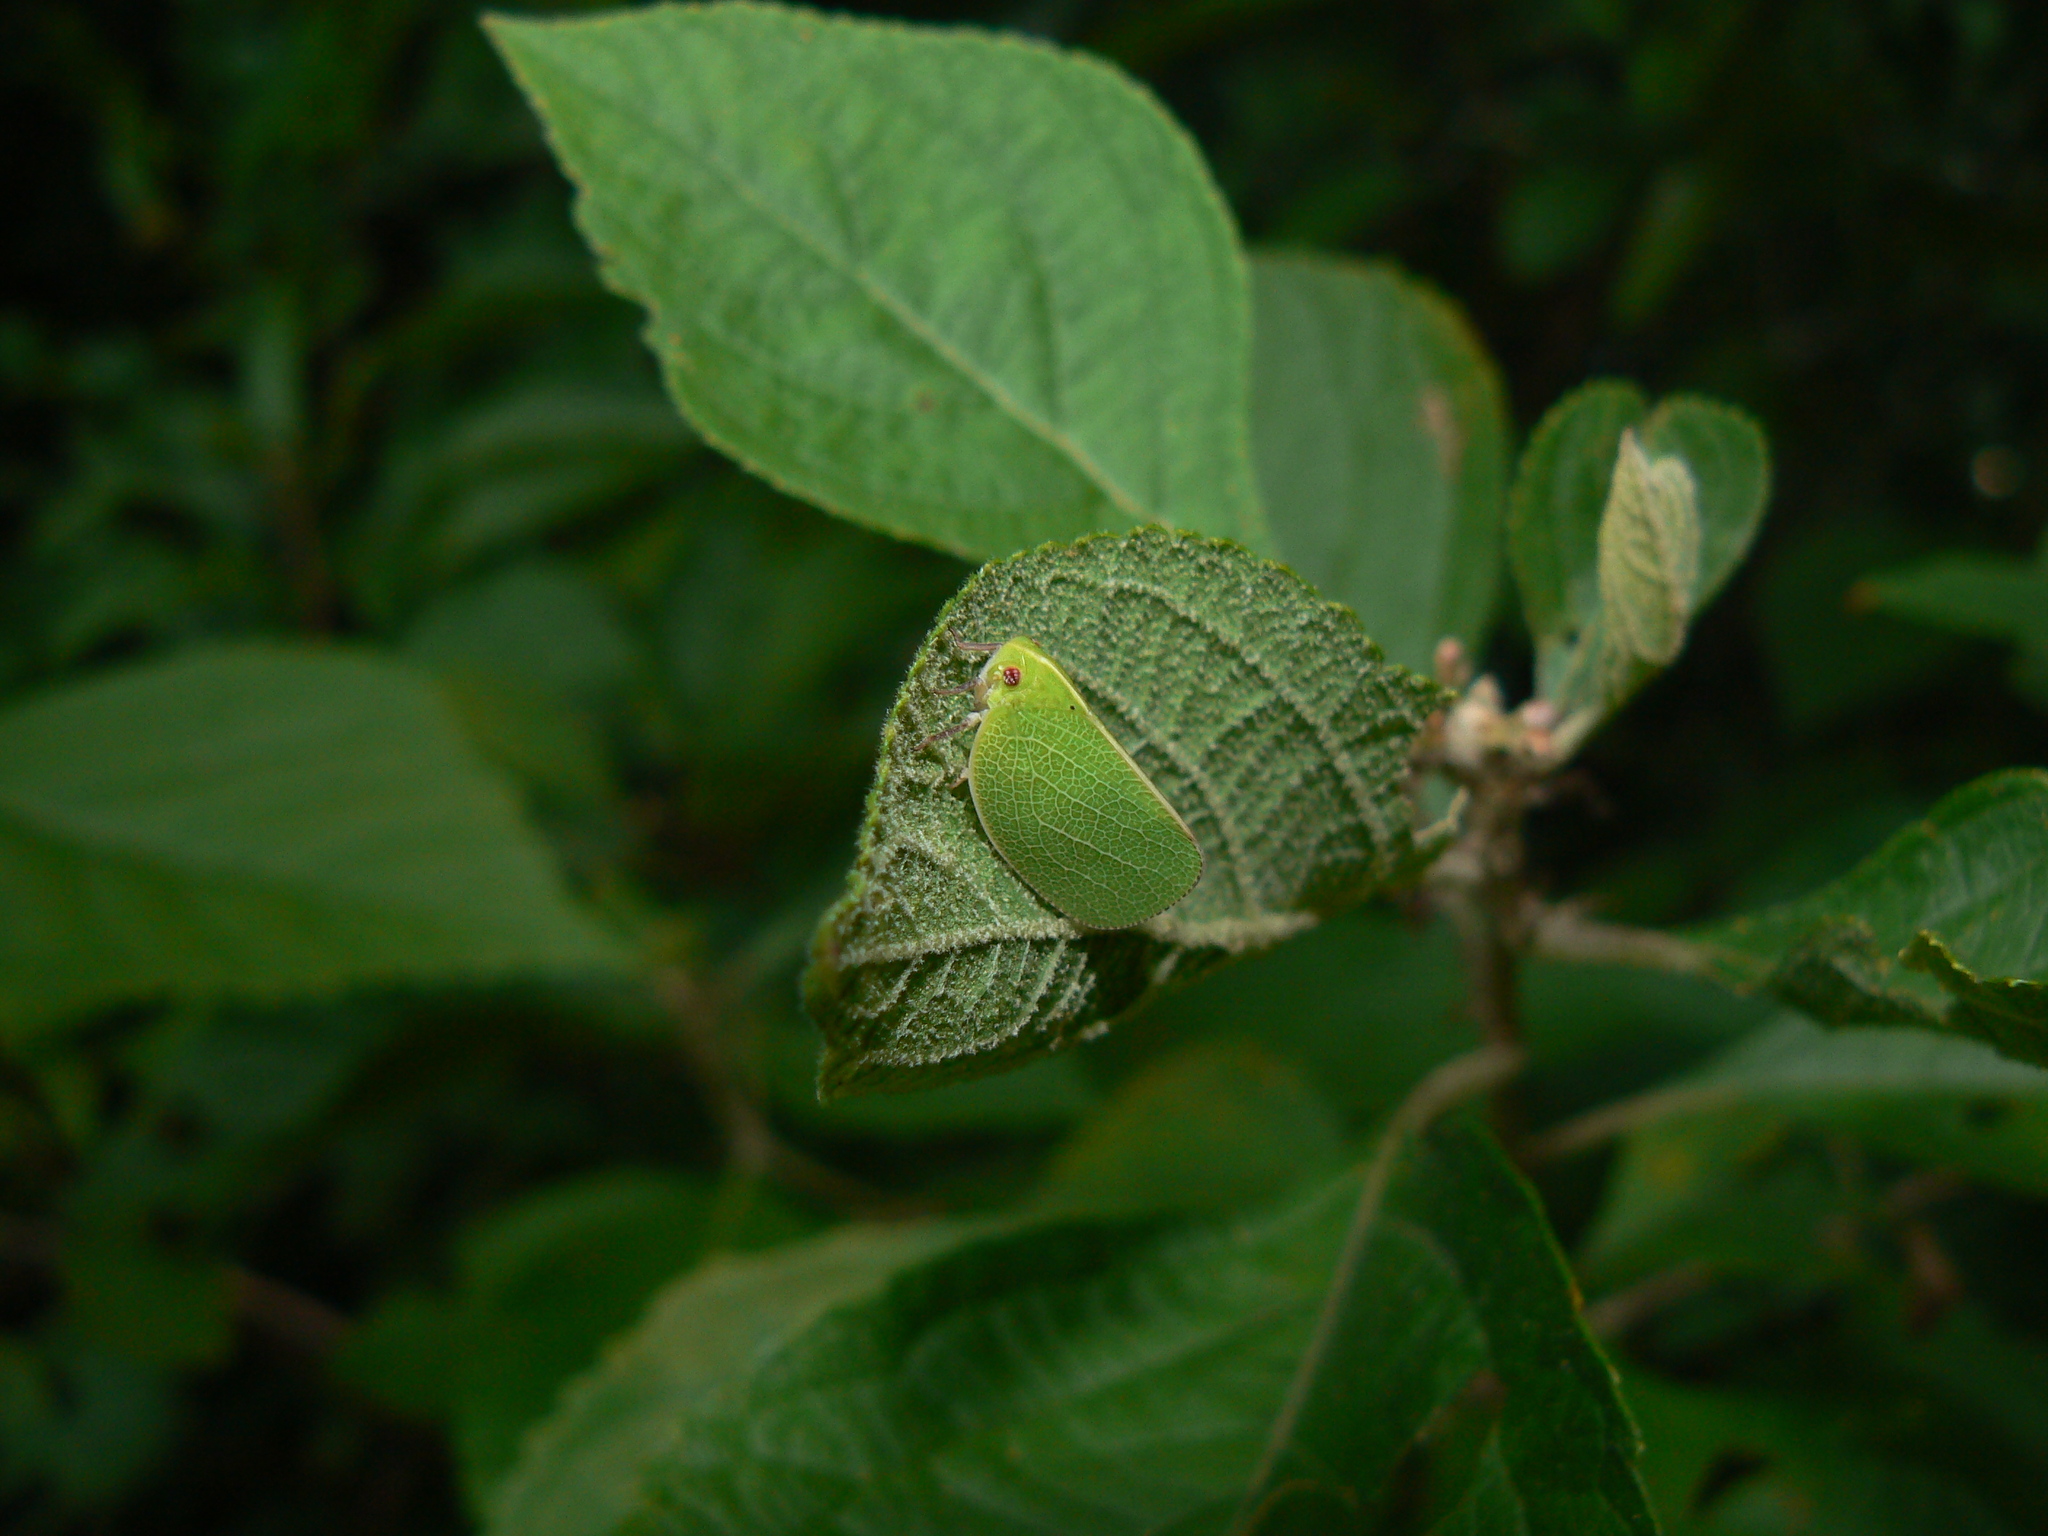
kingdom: Animalia
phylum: Arthropoda
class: Insecta
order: Hemiptera
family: Acanaloniidae
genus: Acanalonia
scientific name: Acanalonia servillei
